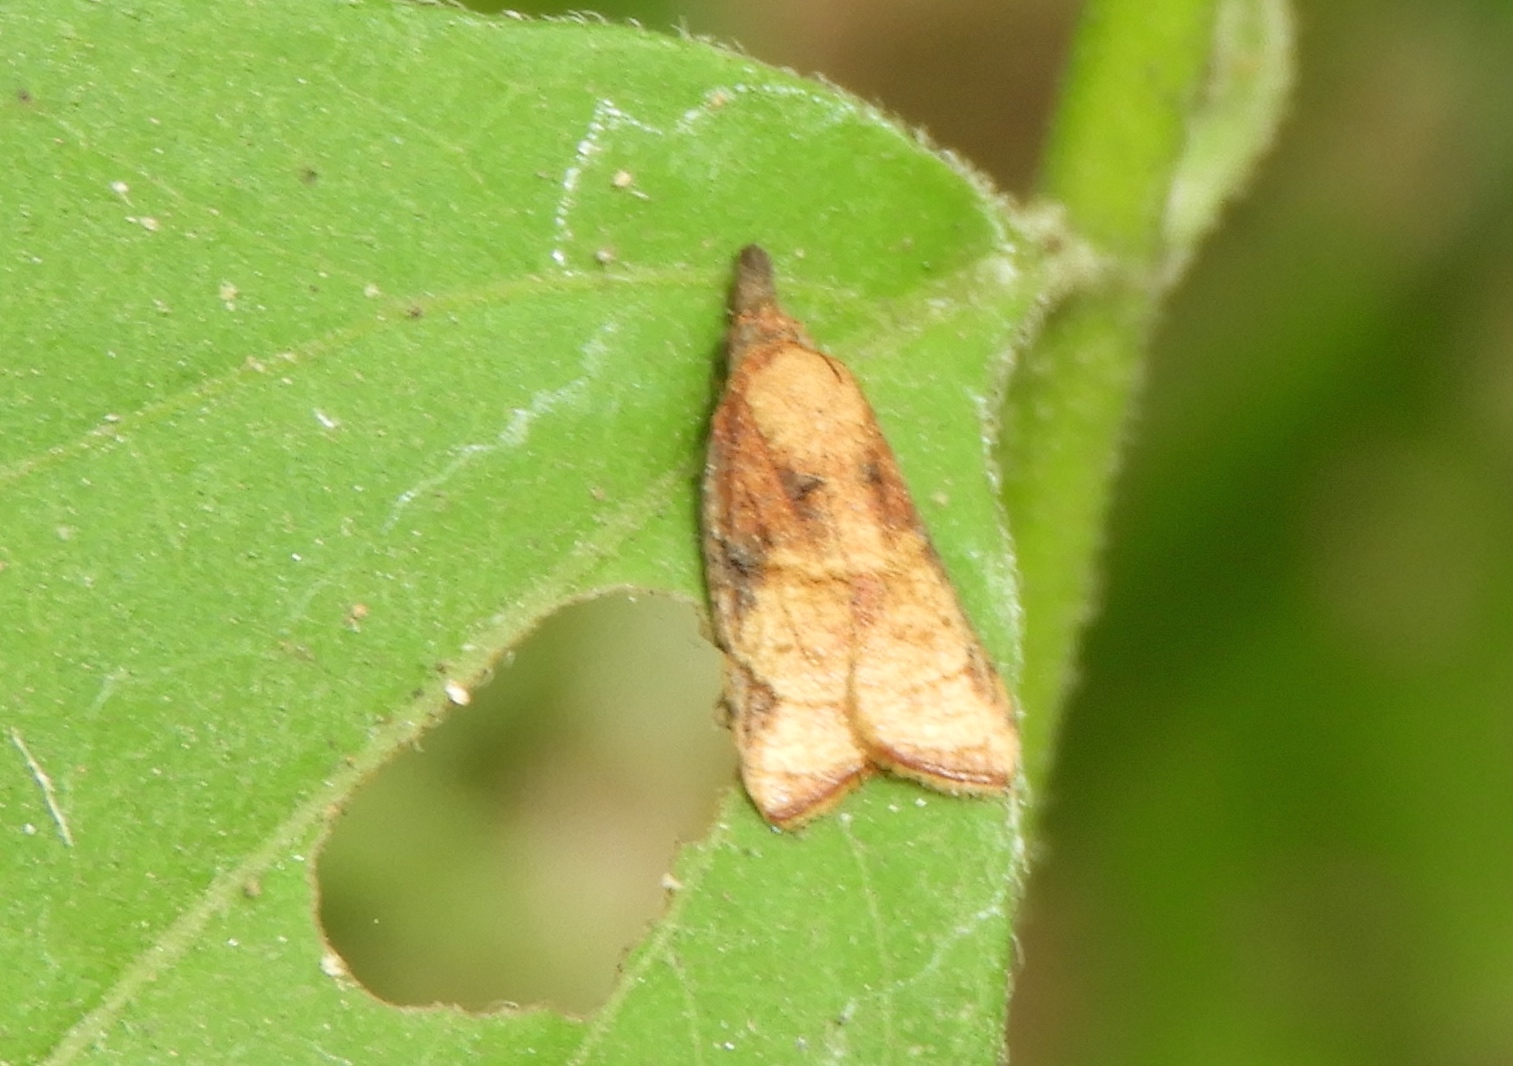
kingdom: Animalia
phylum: Arthropoda
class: Insecta
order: Lepidoptera
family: Tortricidae
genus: Platynota
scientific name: Platynota
